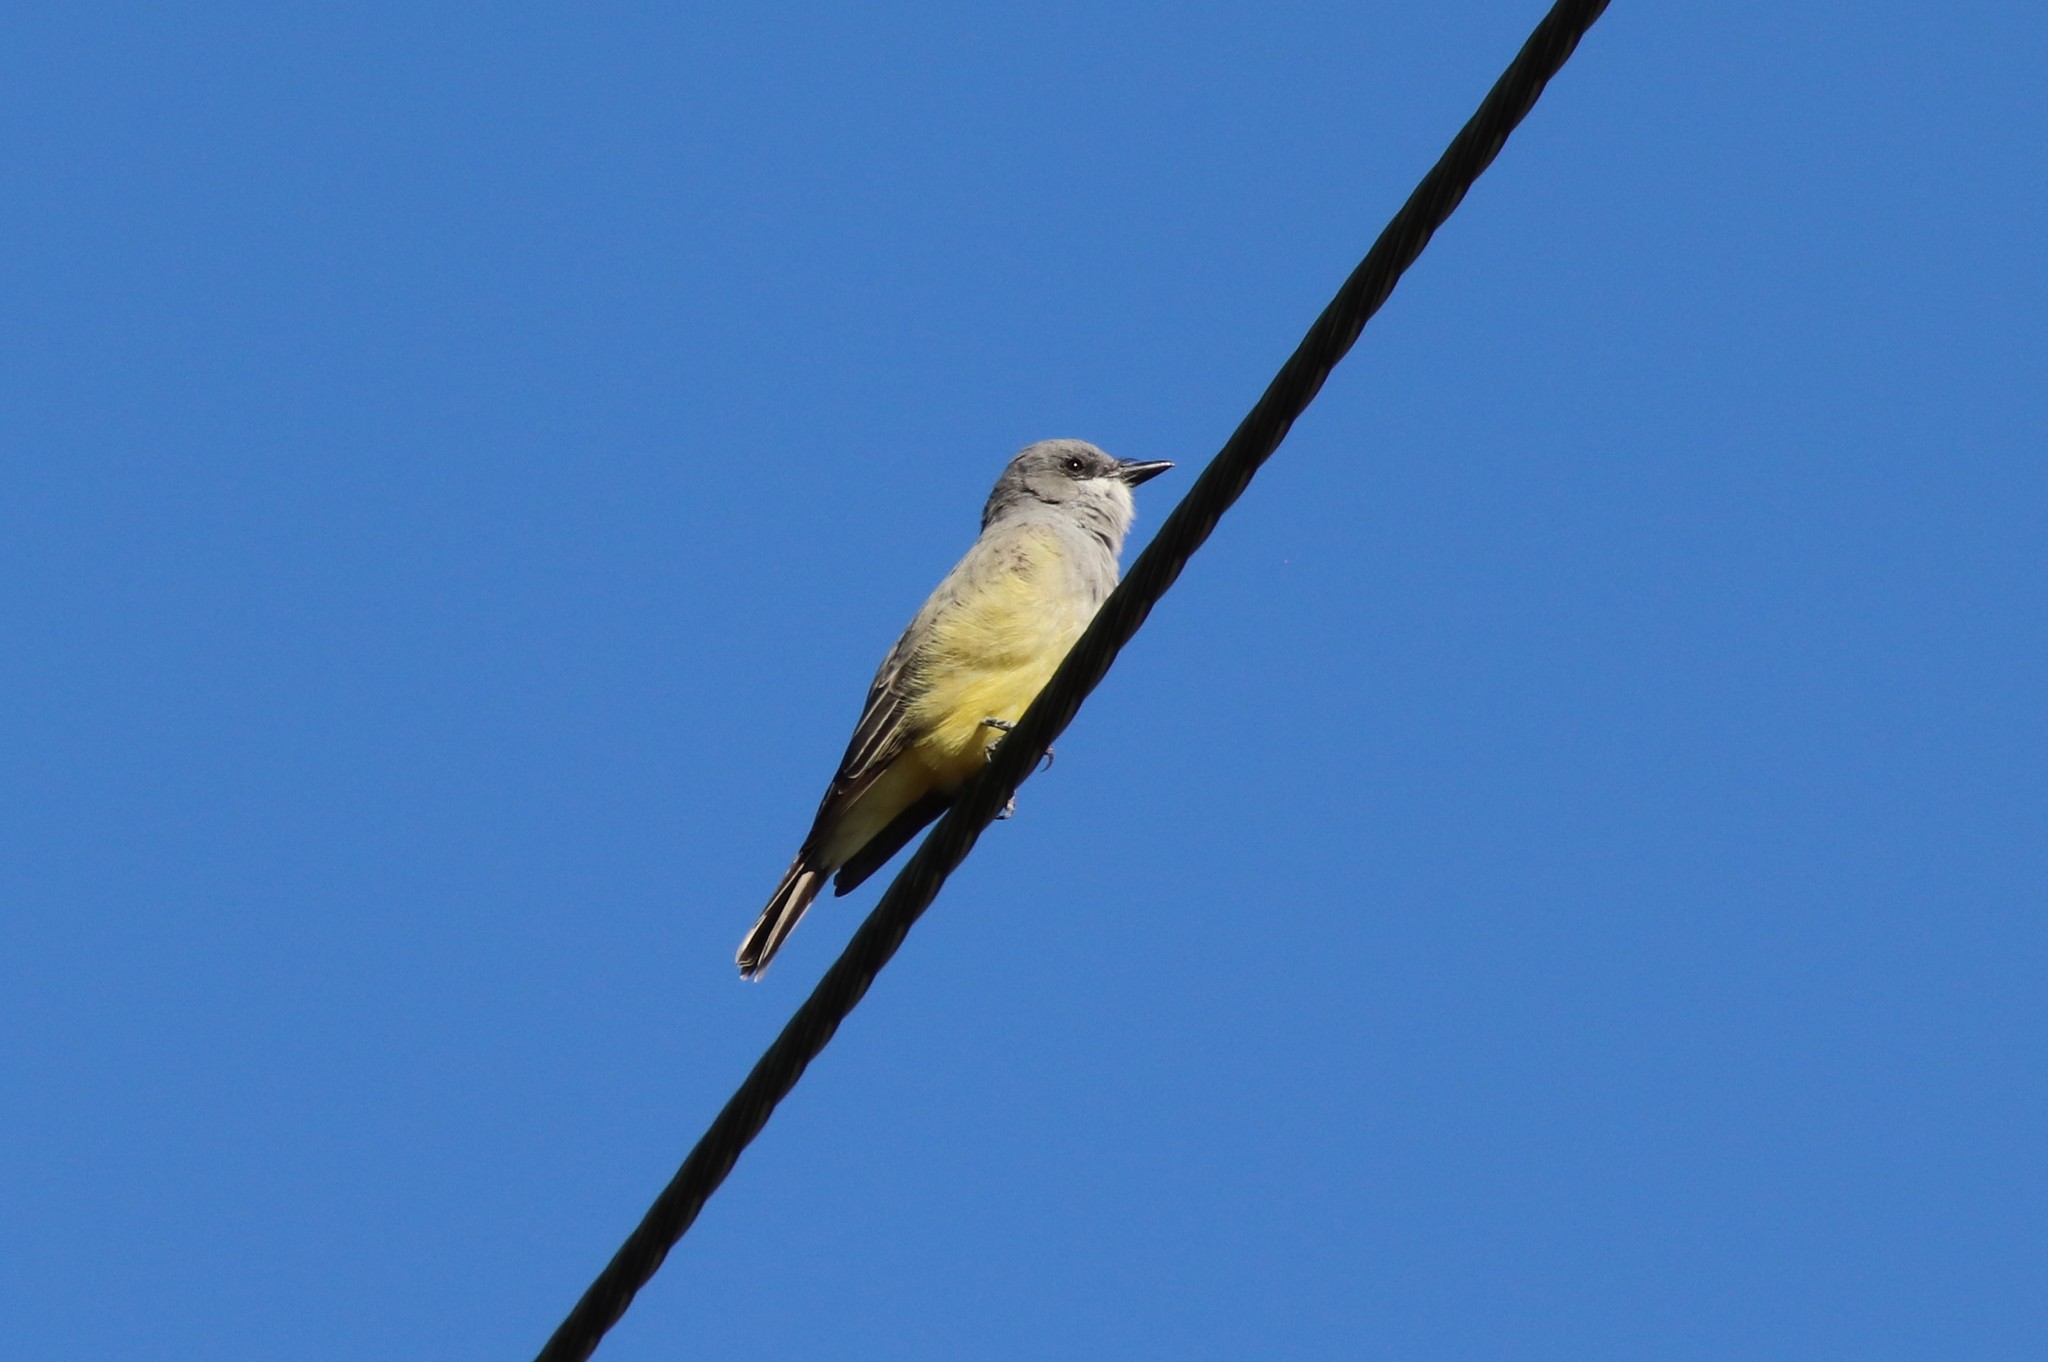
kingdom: Animalia
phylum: Chordata
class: Aves
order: Passeriformes
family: Tyrannidae
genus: Tyrannus
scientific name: Tyrannus vociferans
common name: Cassin's kingbird
